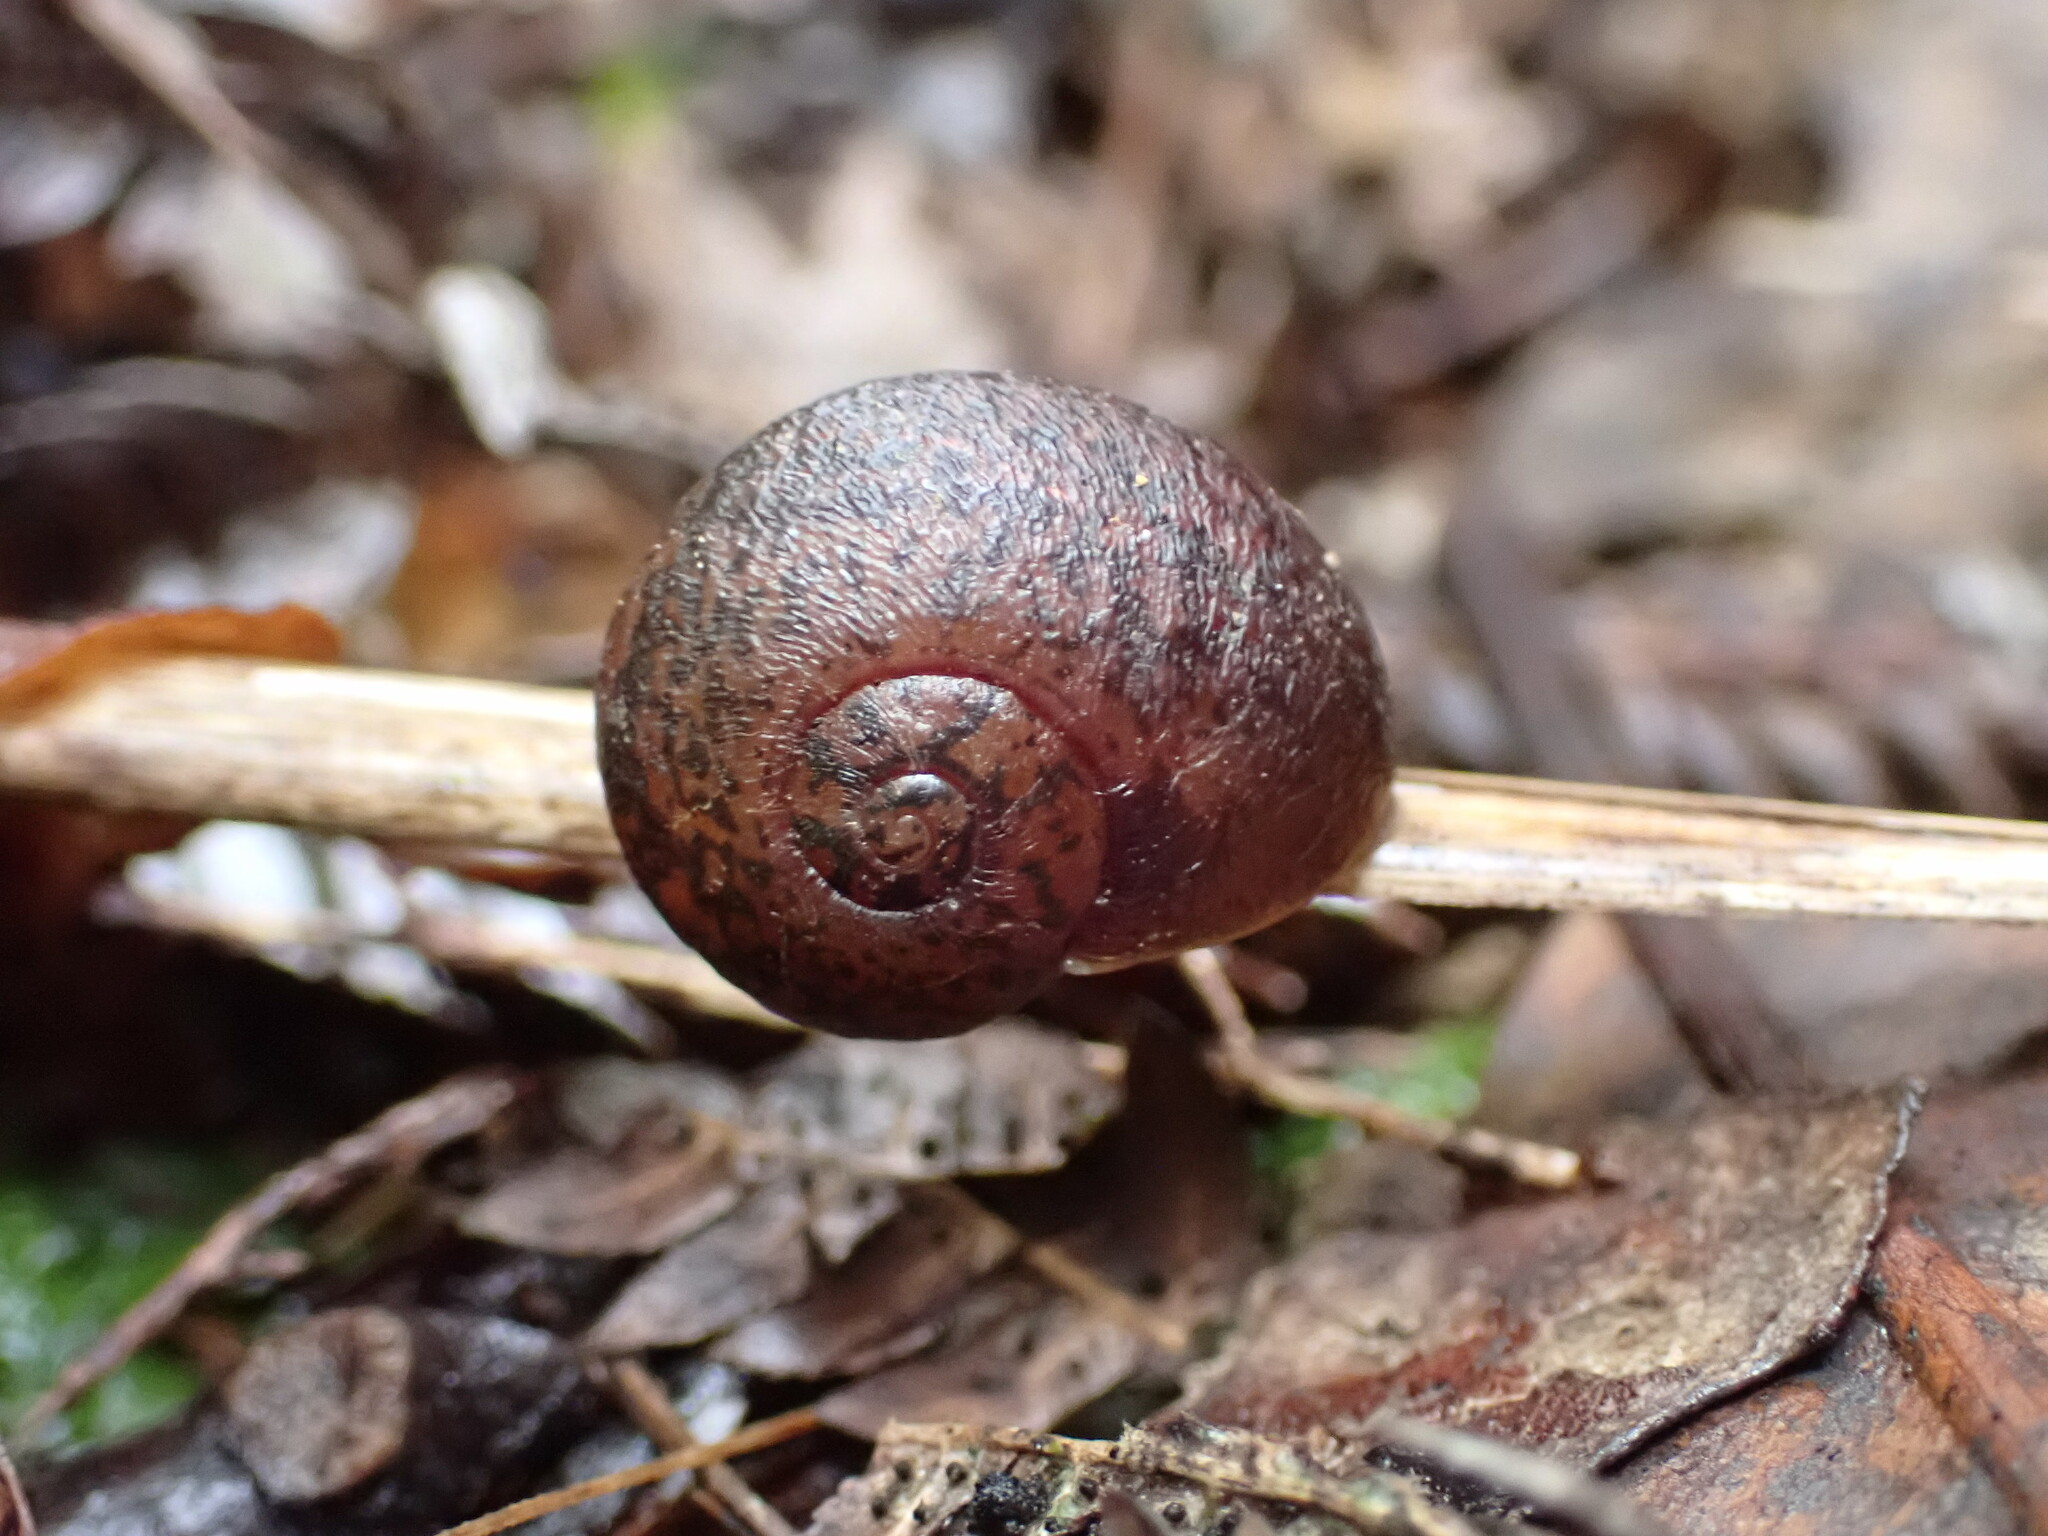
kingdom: Animalia
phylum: Mollusca
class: Gastropoda
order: Stylommatophora
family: Rhytididae
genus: Rhytida
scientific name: Rhytida greenwoodi
